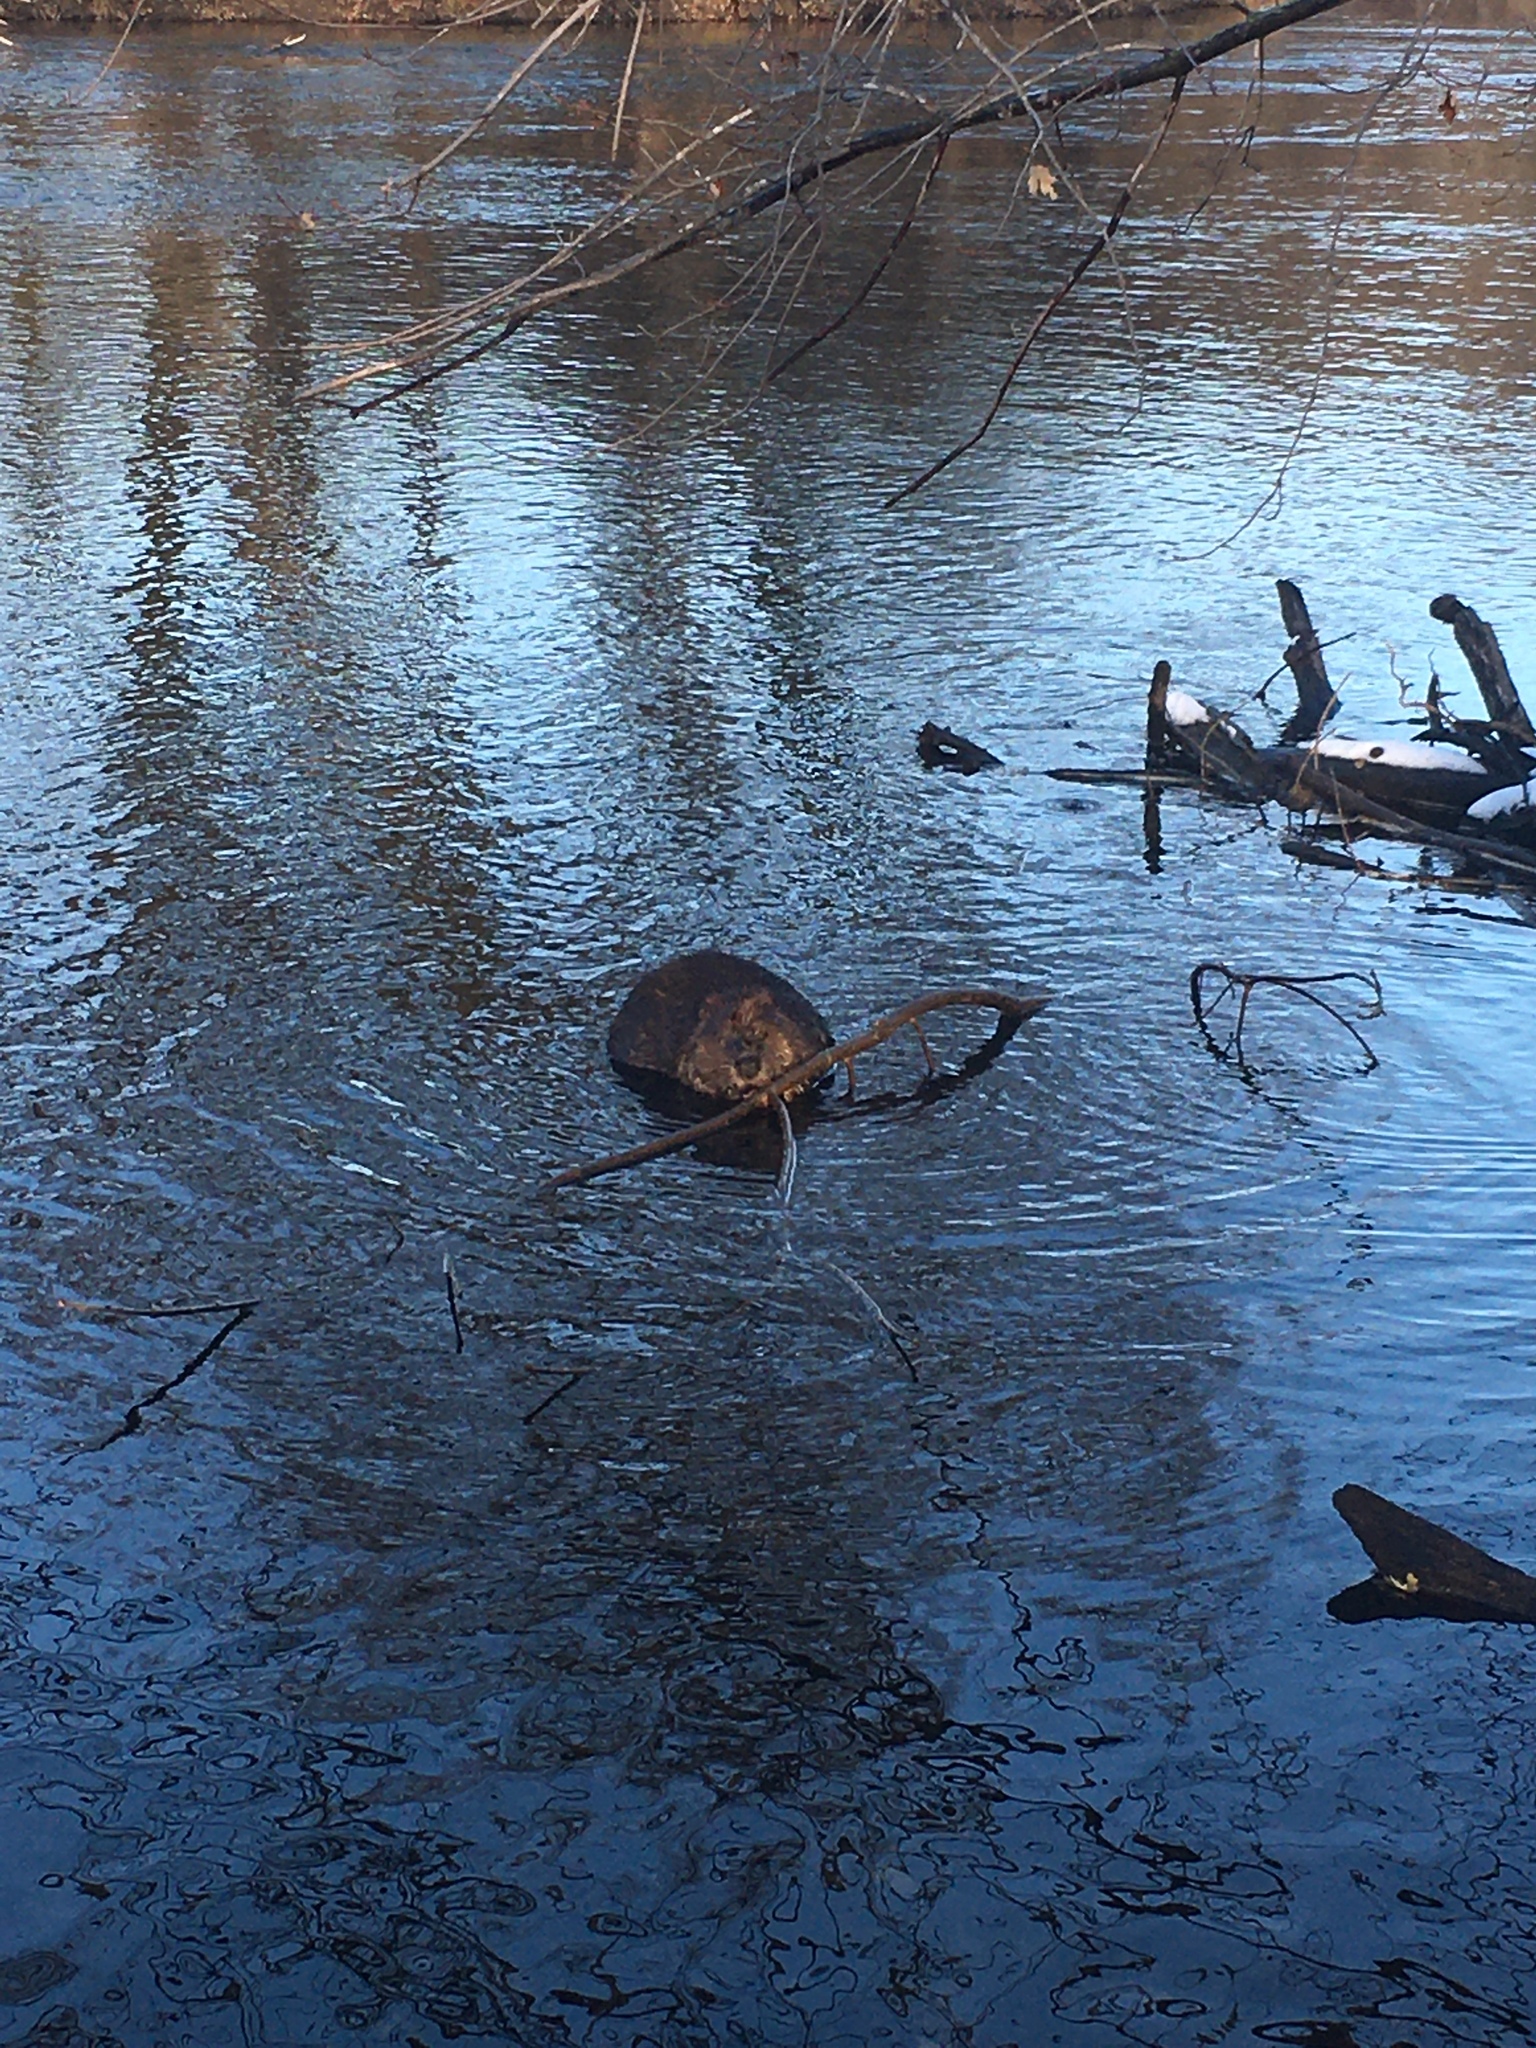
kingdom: Animalia
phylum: Chordata
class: Mammalia
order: Rodentia
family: Castoridae
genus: Castor
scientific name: Castor canadensis
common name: American beaver
